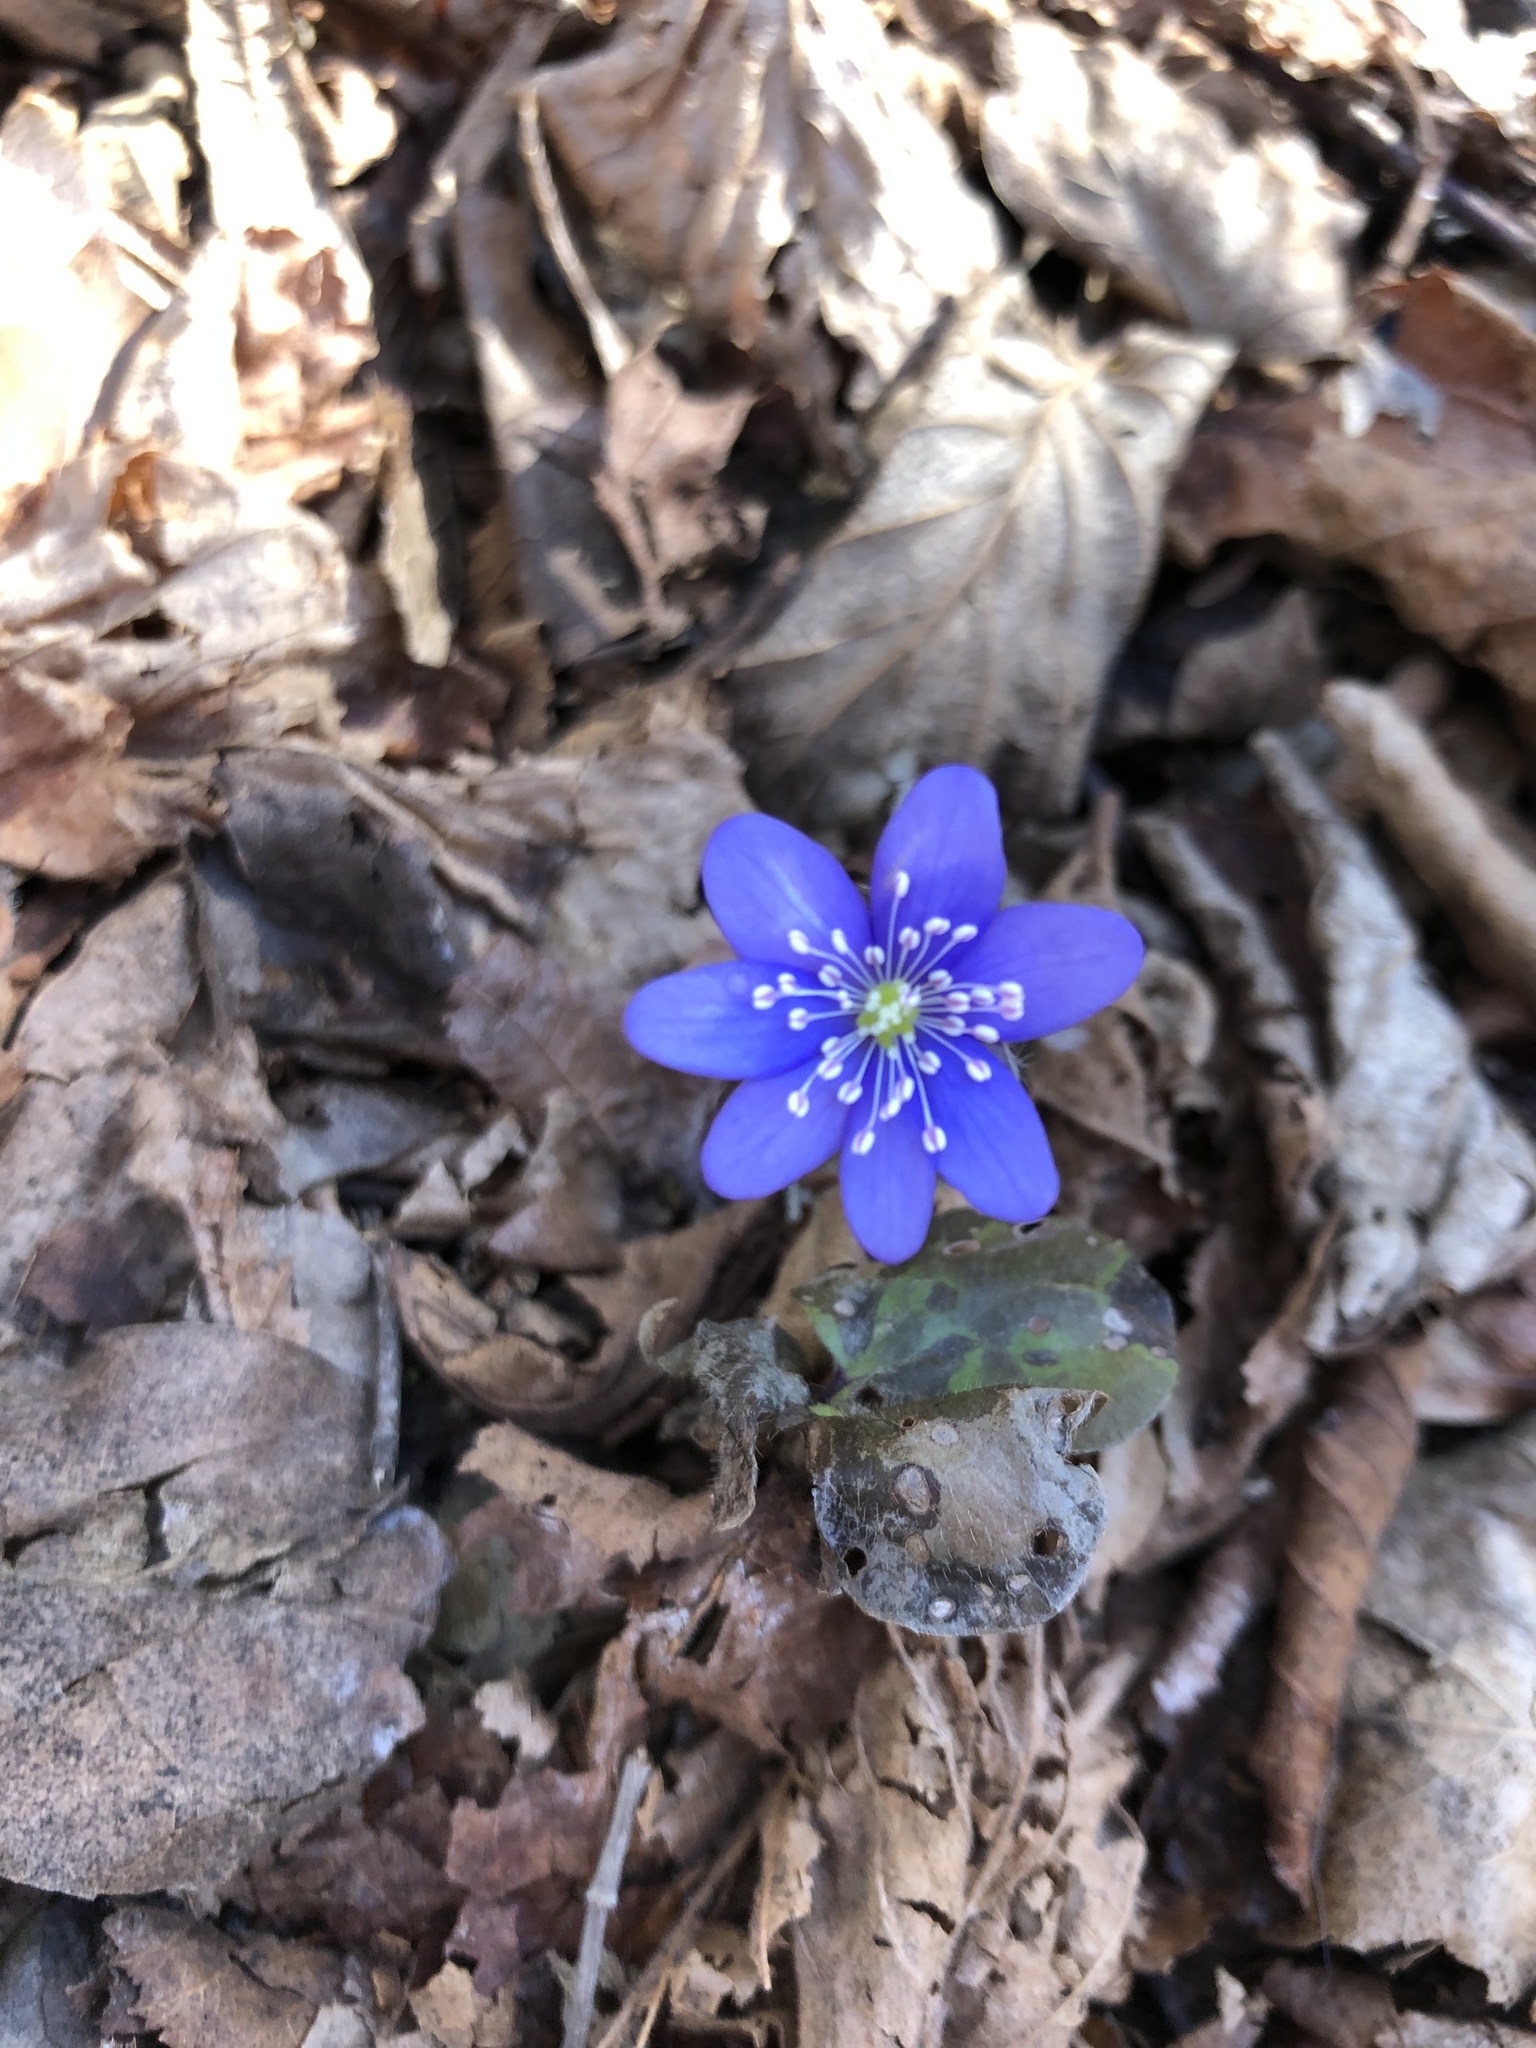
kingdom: Plantae
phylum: Tracheophyta
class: Magnoliopsida
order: Ranunculales
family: Ranunculaceae
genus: Hepatica
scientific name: Hepatica nobilis
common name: Liverleaf
